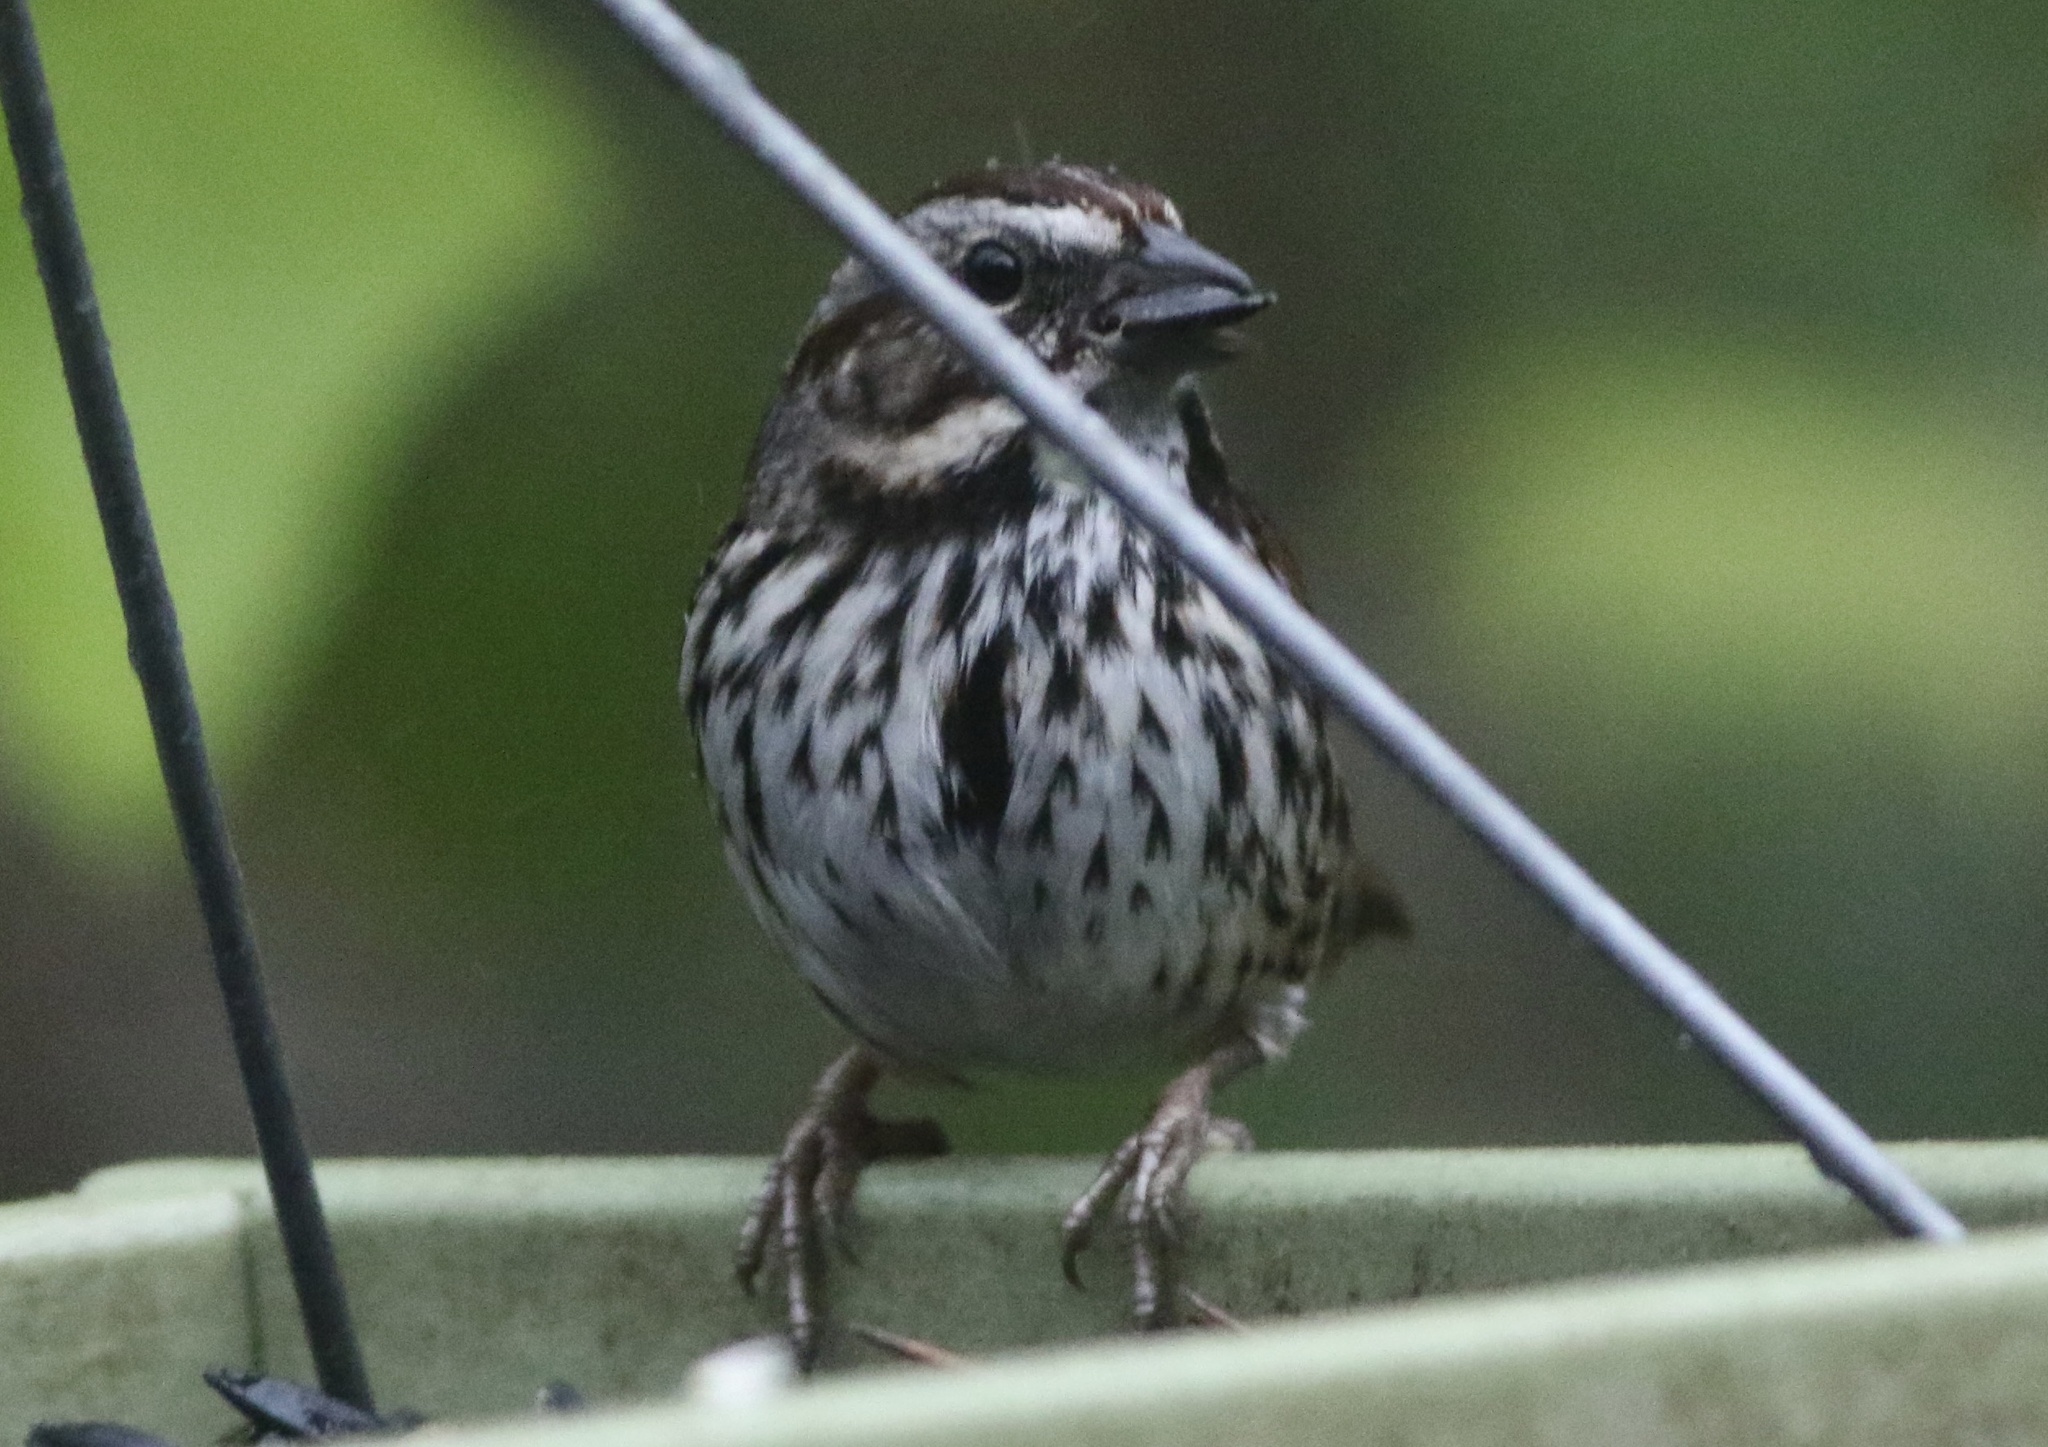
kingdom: Animalia
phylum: Chordata
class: Aves
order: Passeriformes
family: Passerellidae
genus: Melospiza
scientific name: Melospiza melodia
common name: Song sparrow
